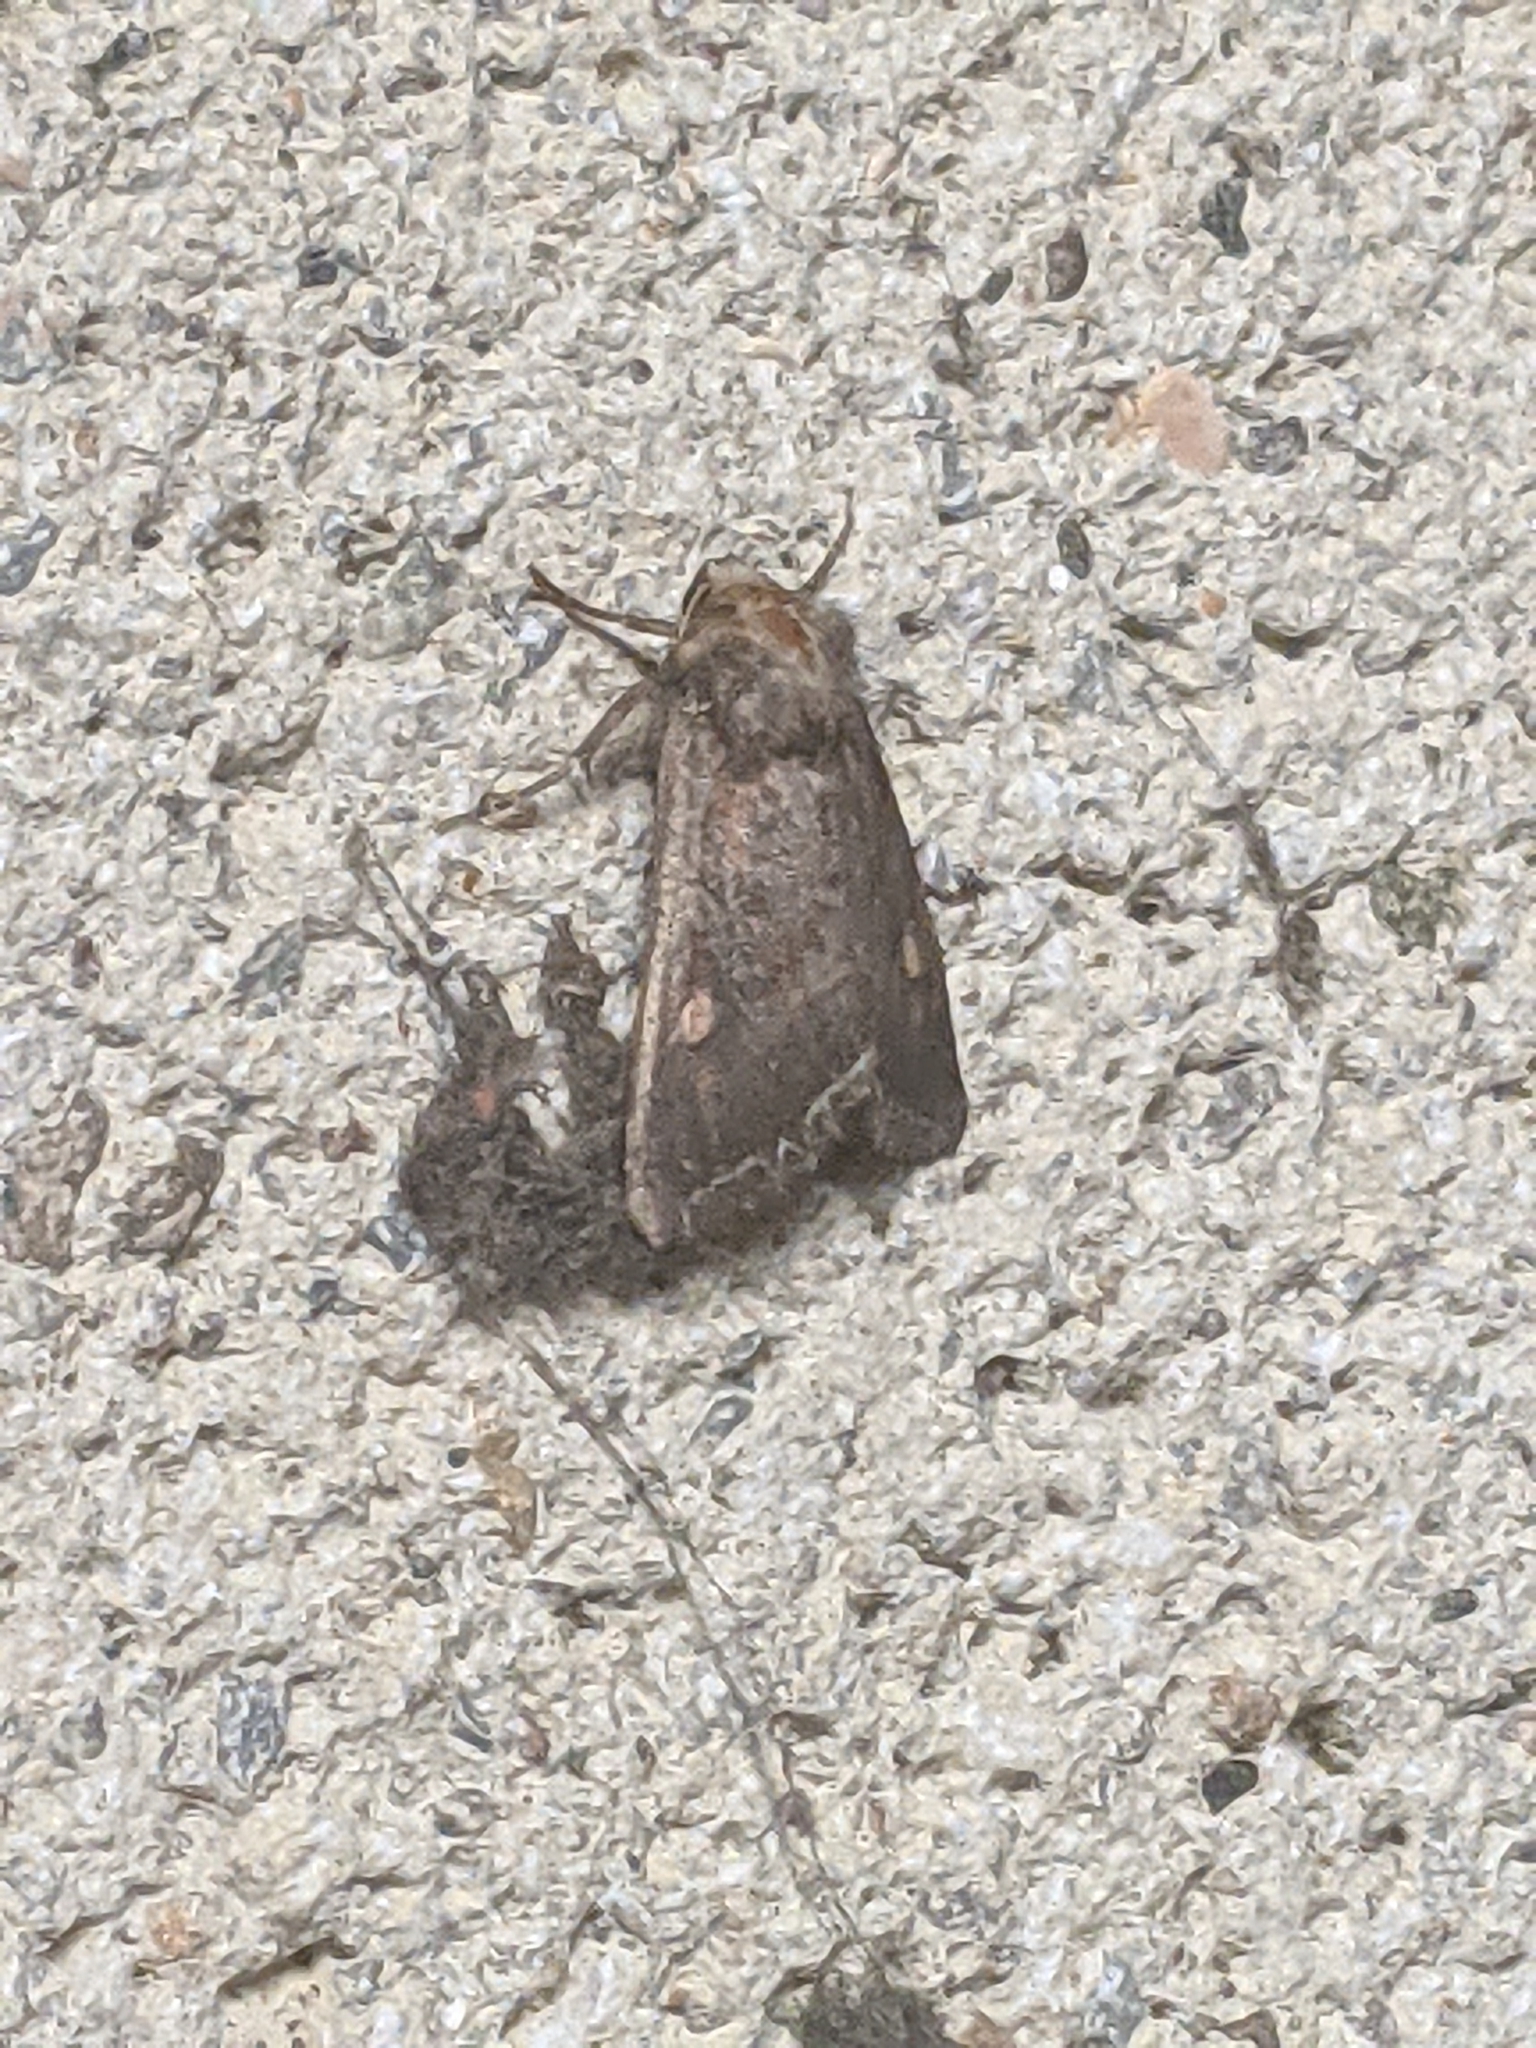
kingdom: Animalia
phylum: Arthropoda
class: Insecta
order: Lepidoptera
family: Noctuidae
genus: Lacanobia
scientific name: Lacanobia oleracea
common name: Bright-line brown-eye
